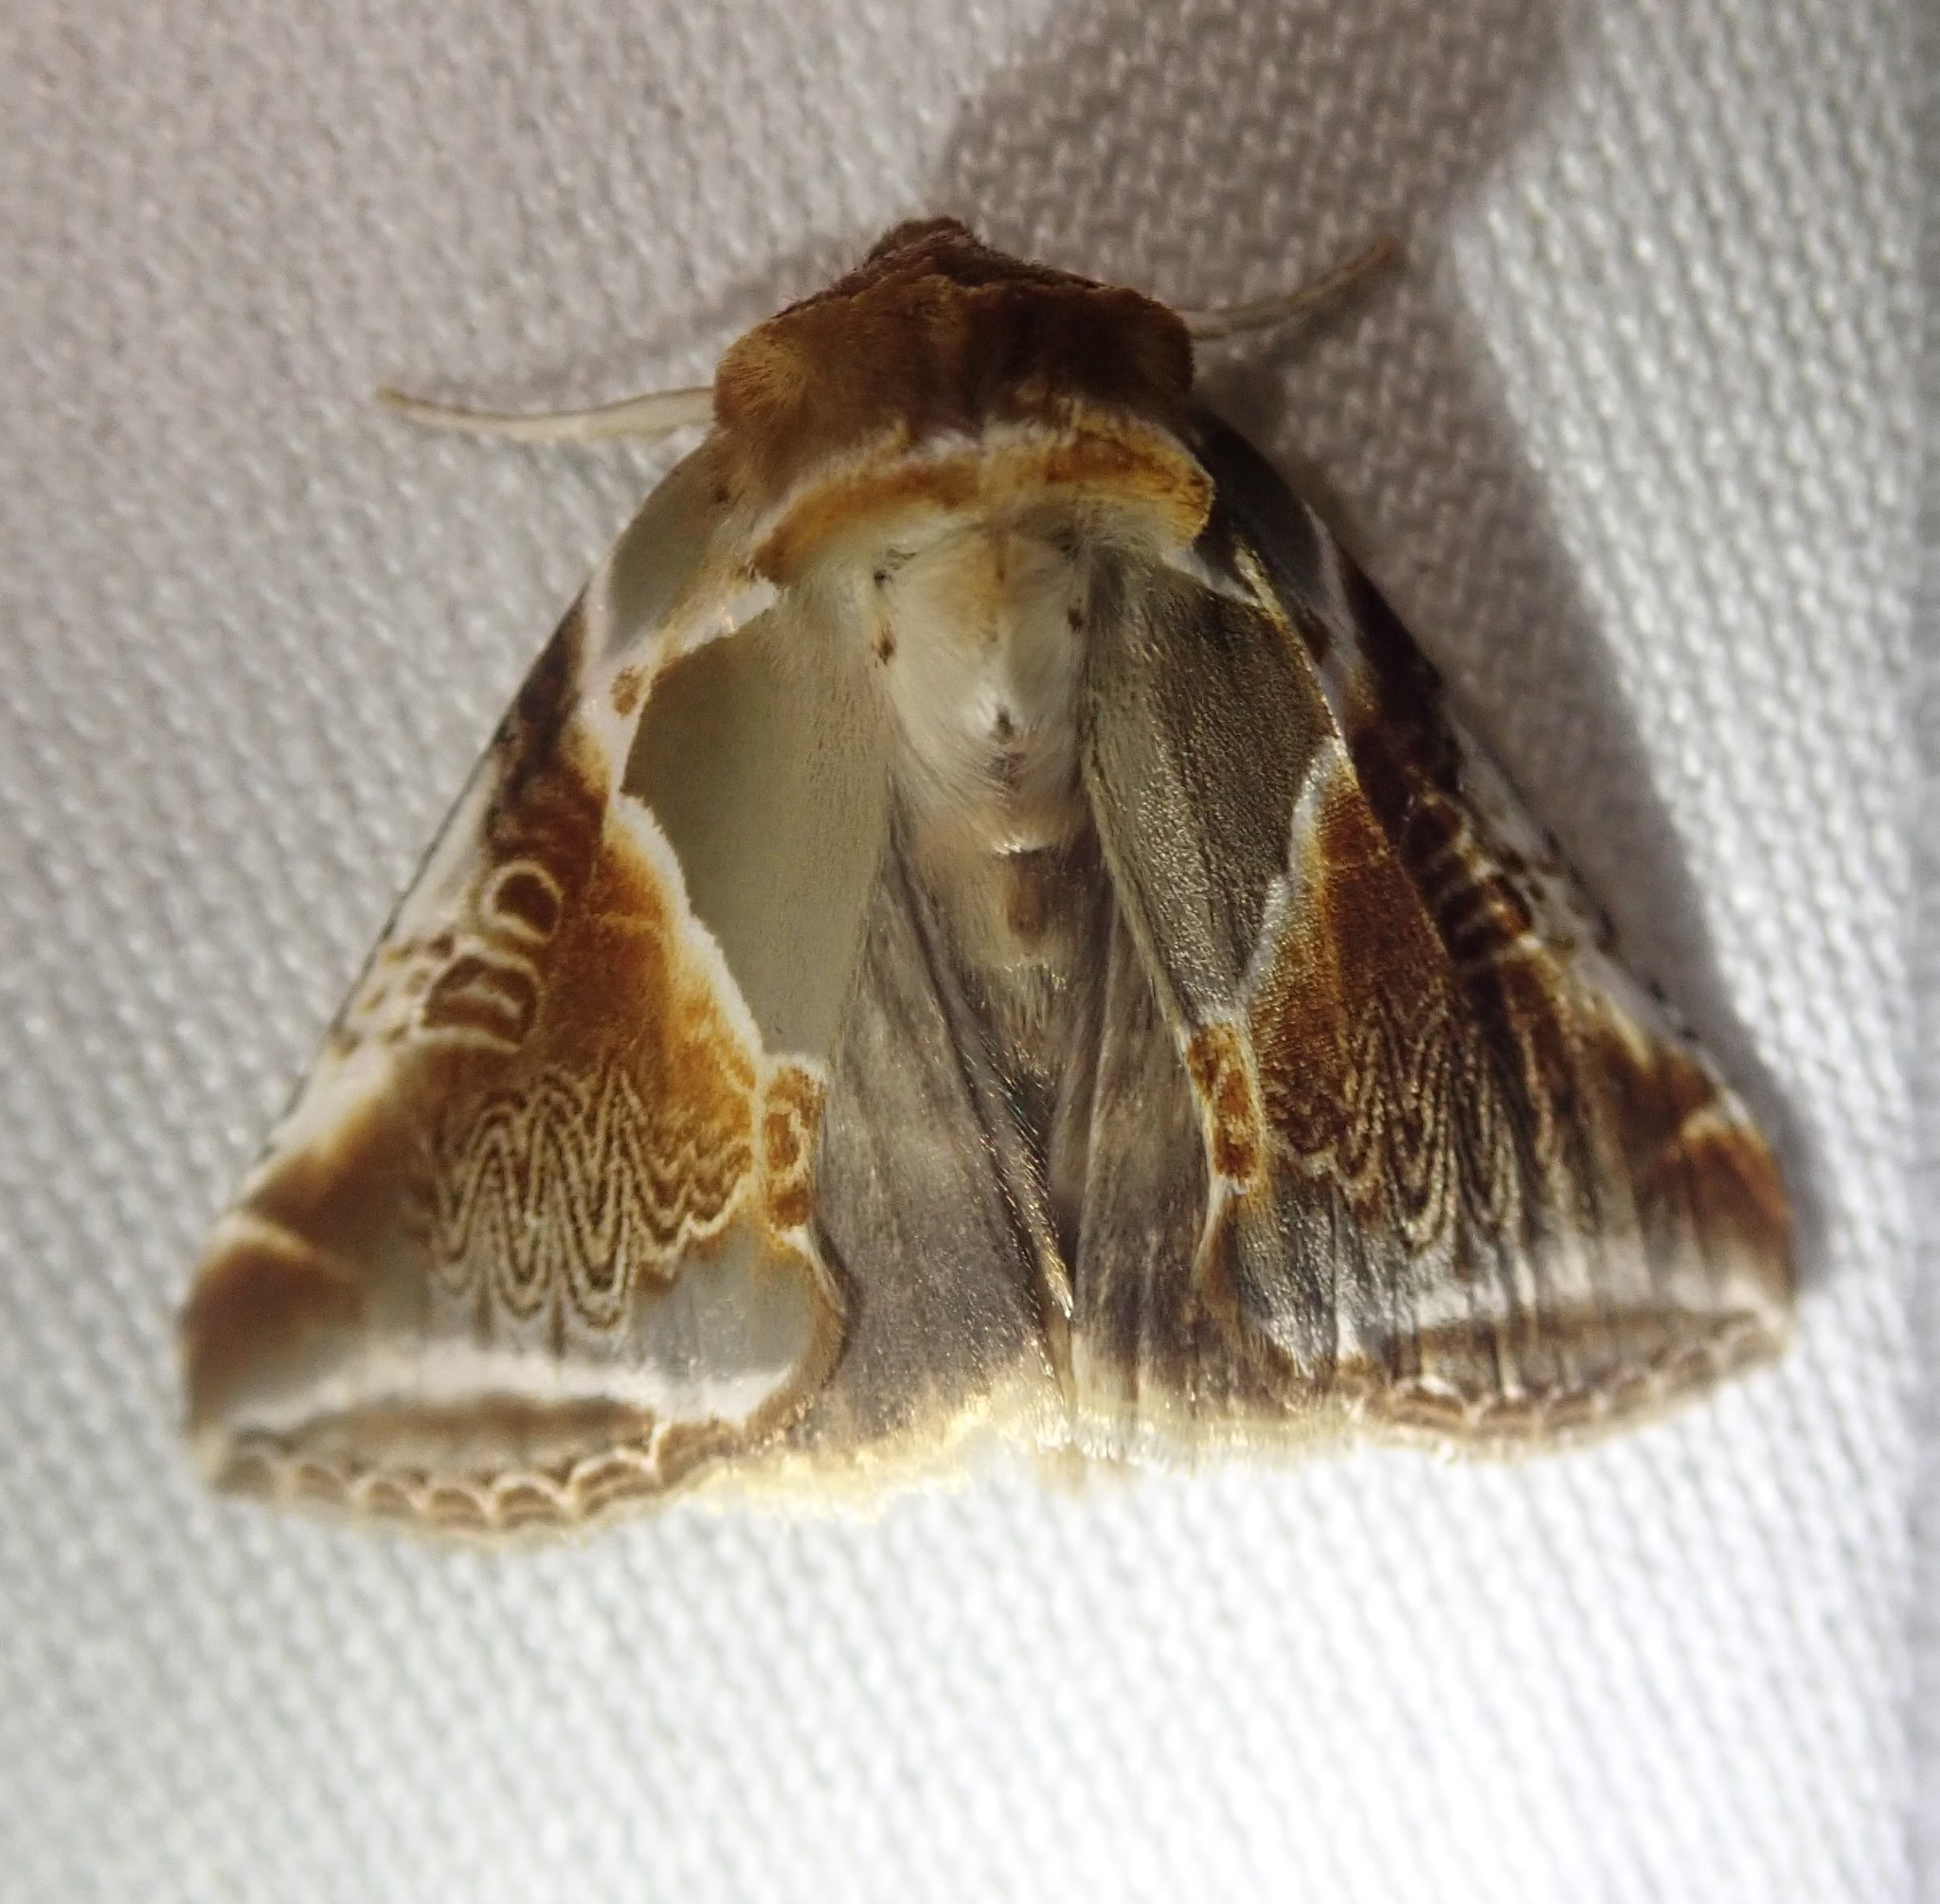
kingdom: Animalia
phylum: Arthropoda
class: Insecta
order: Lepidoptera
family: Drepanidae
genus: Habrosyne
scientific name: Habrosyne pyritoides
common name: Buff arches
